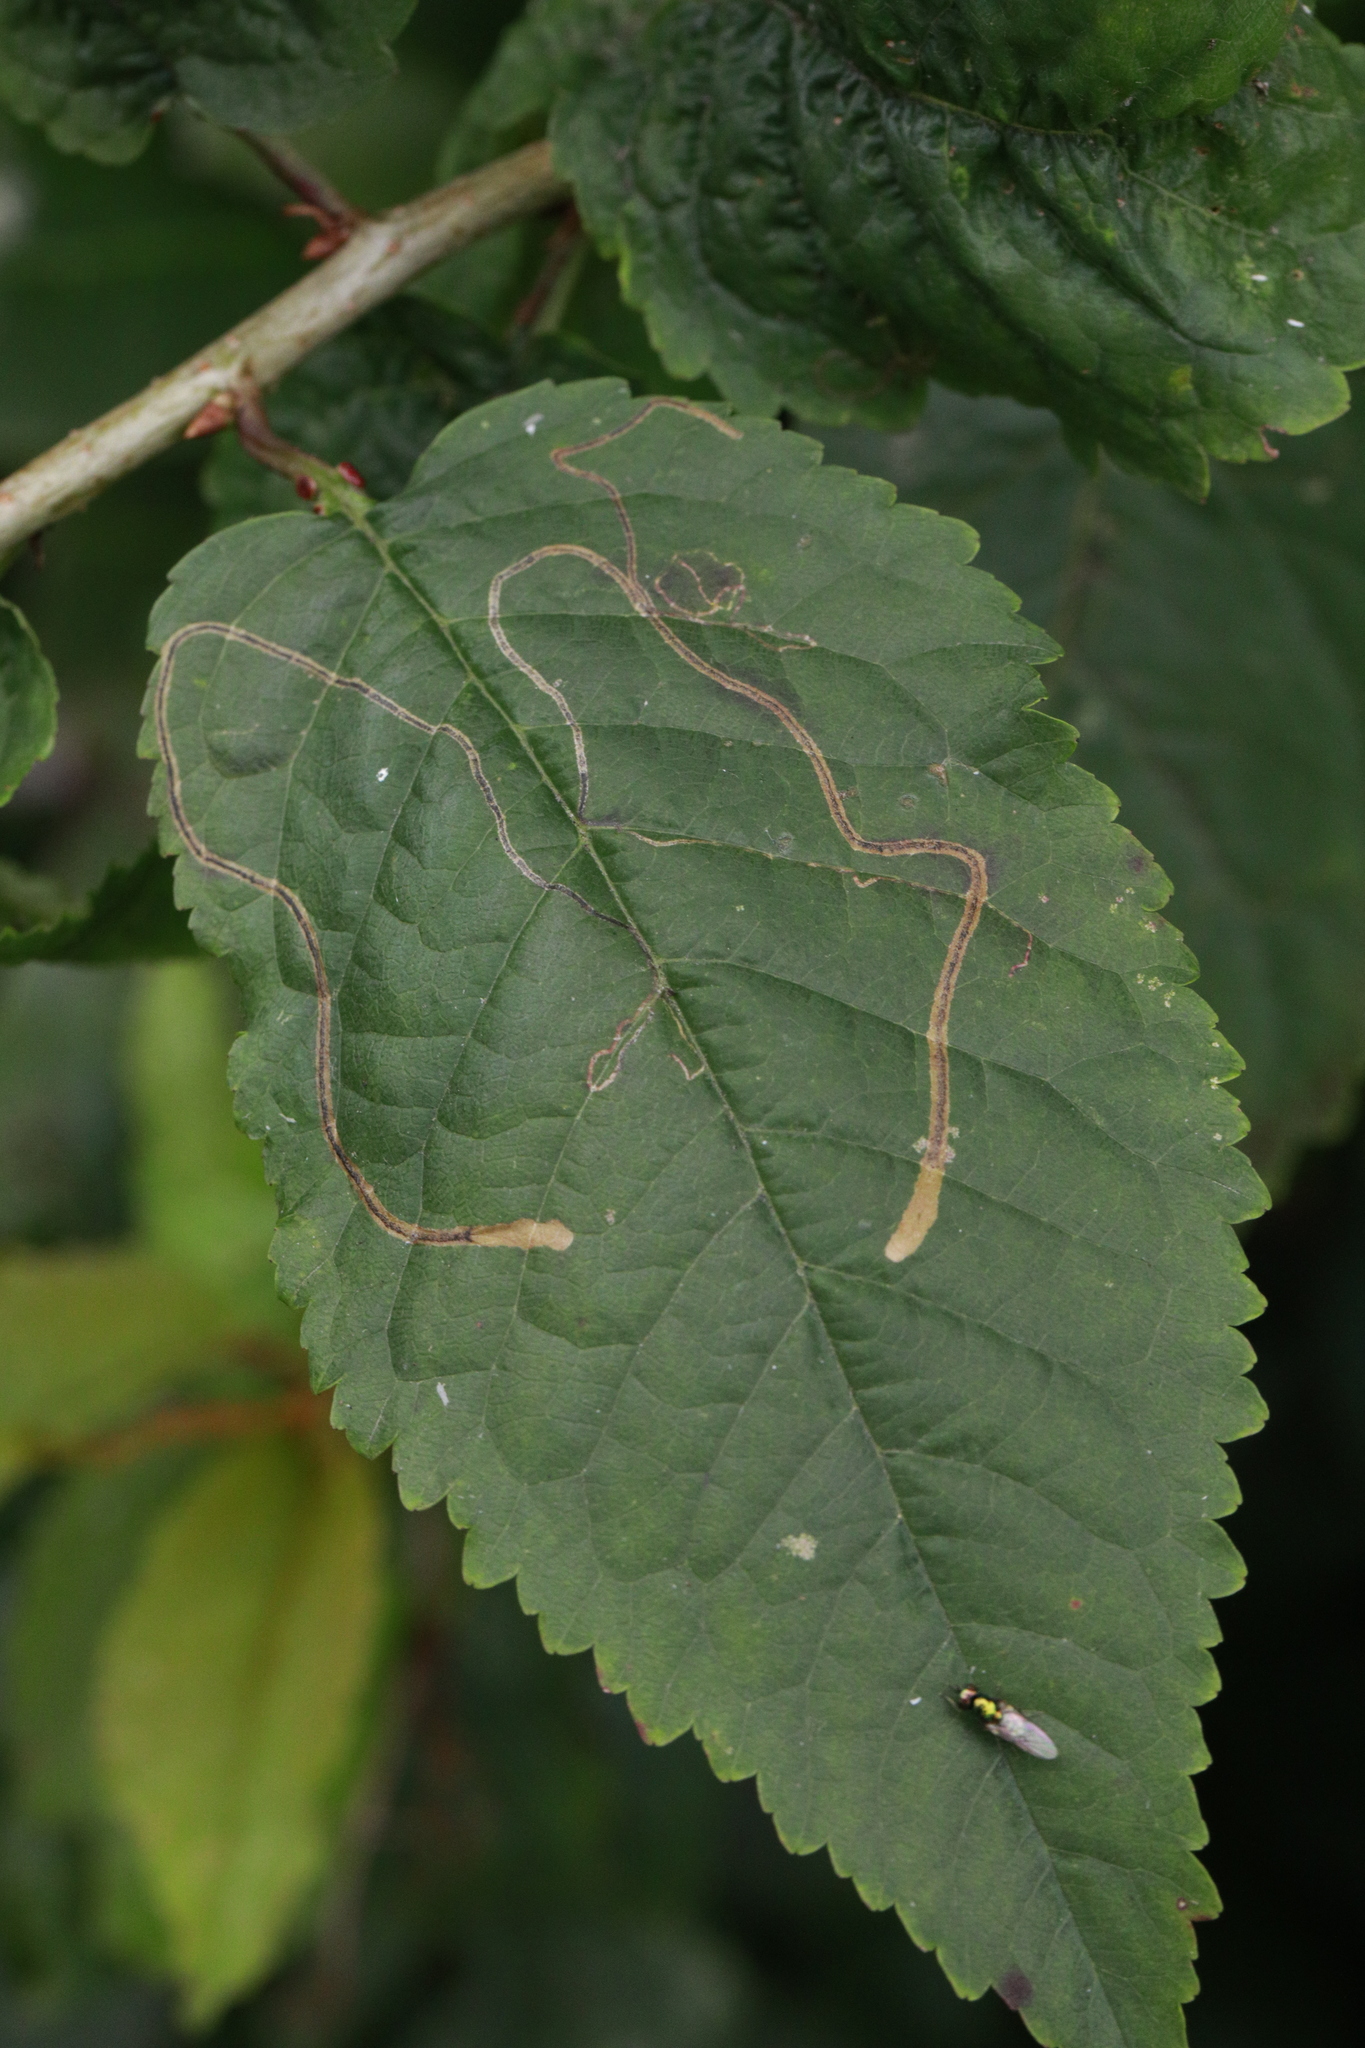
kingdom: Animalia
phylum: Arthropoda
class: Insecta
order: Lepidoptera
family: Lyonetiidae
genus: Lyonetia
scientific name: Lyonetia clerkella
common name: Apple leaf miner
